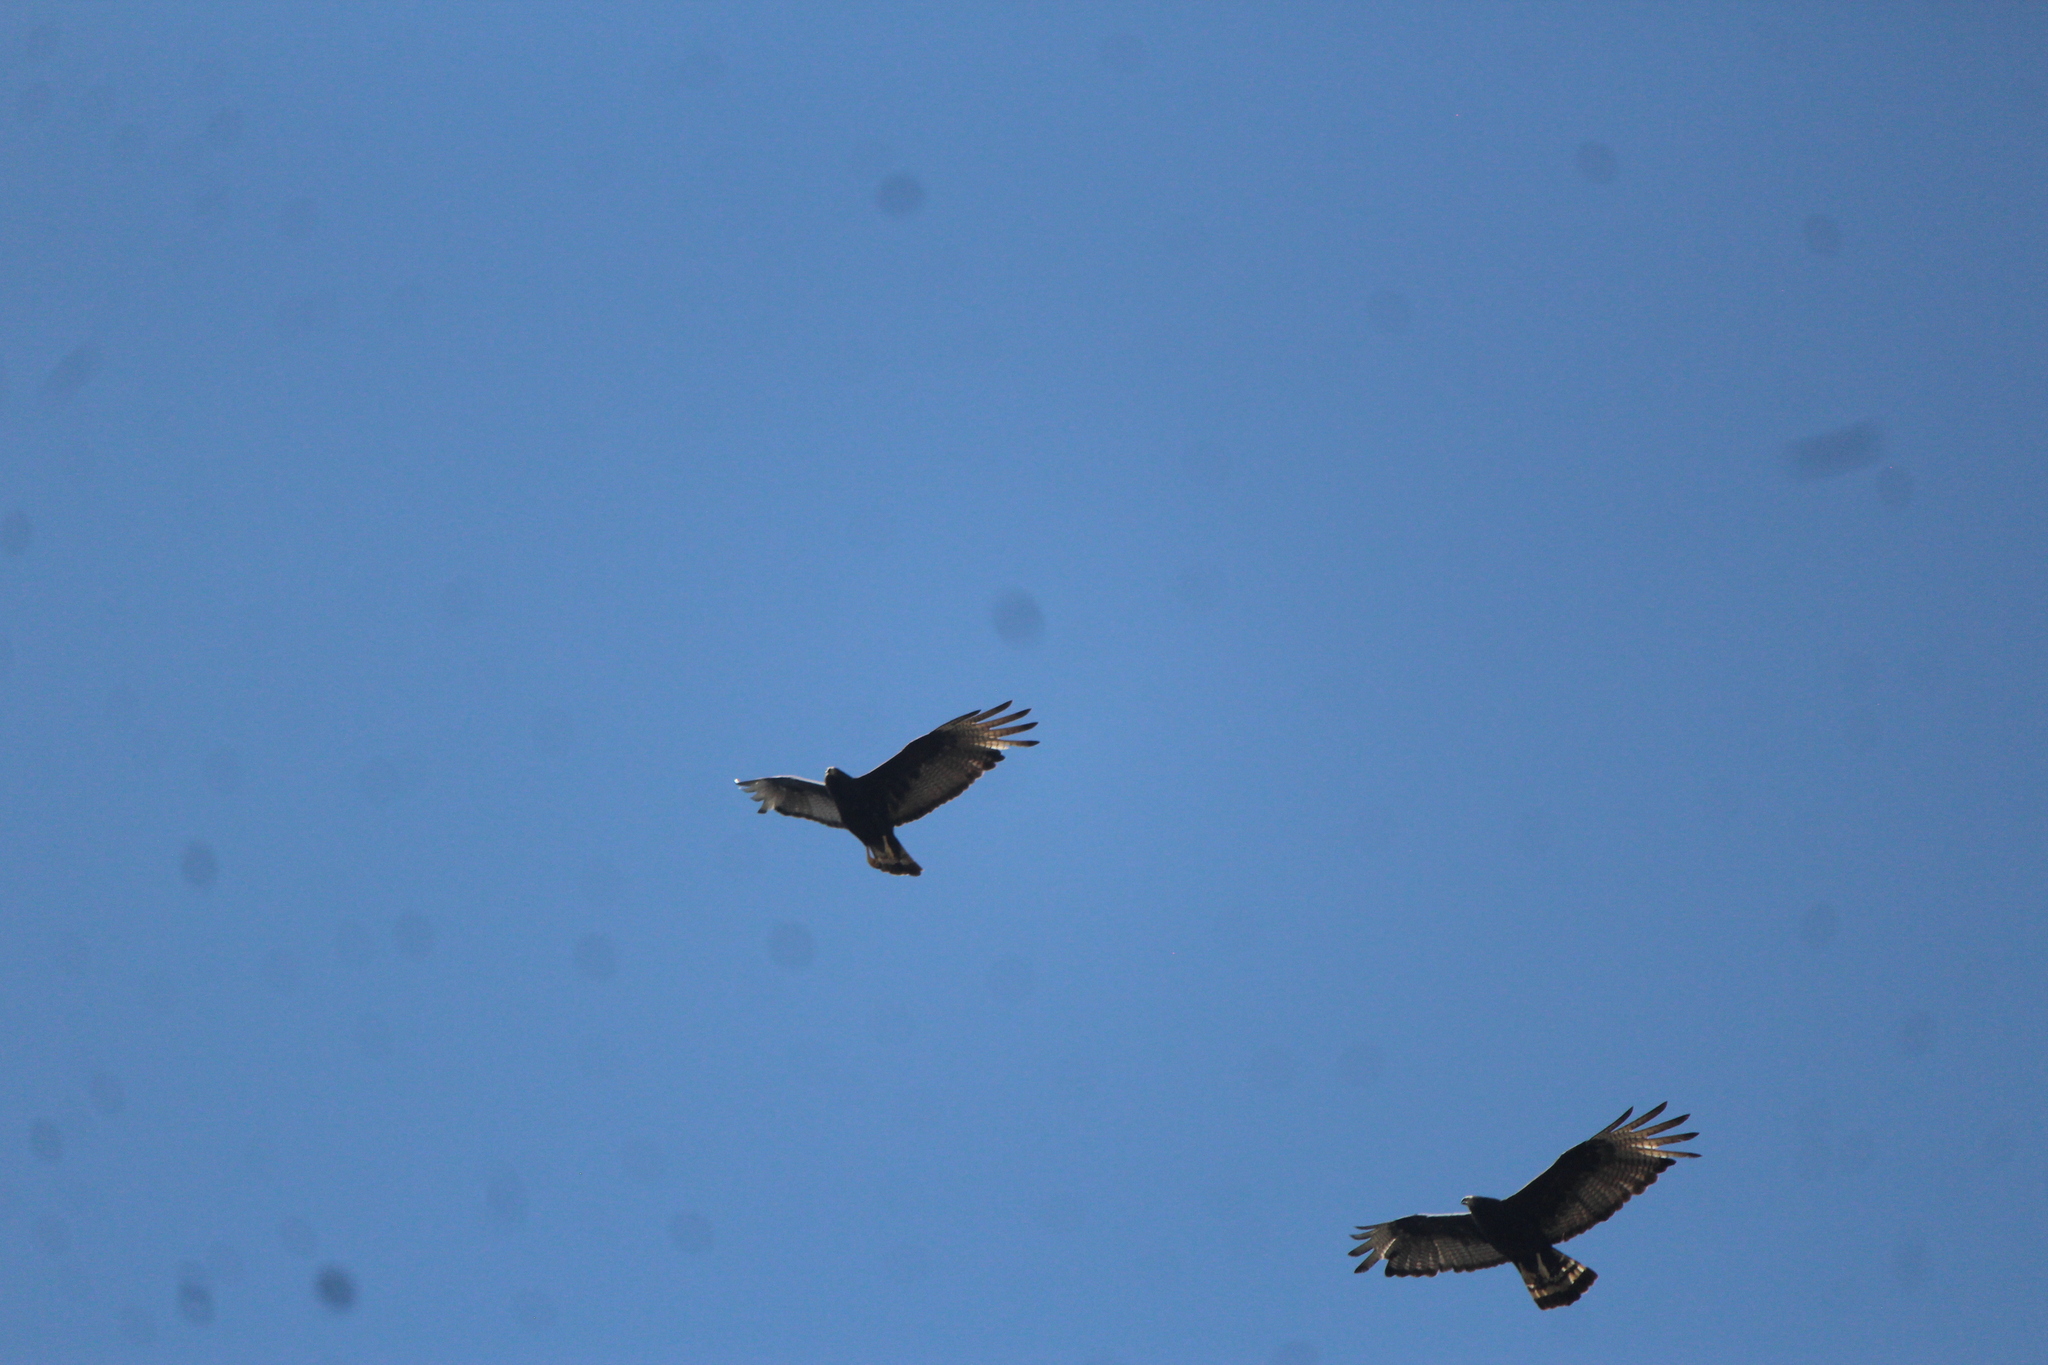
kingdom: Animalia
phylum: Chordata
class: Aves
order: Accipitriformes
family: Accipitridae
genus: Buteo
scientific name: Buteo albonotatus
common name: Zone-tailed hawk
